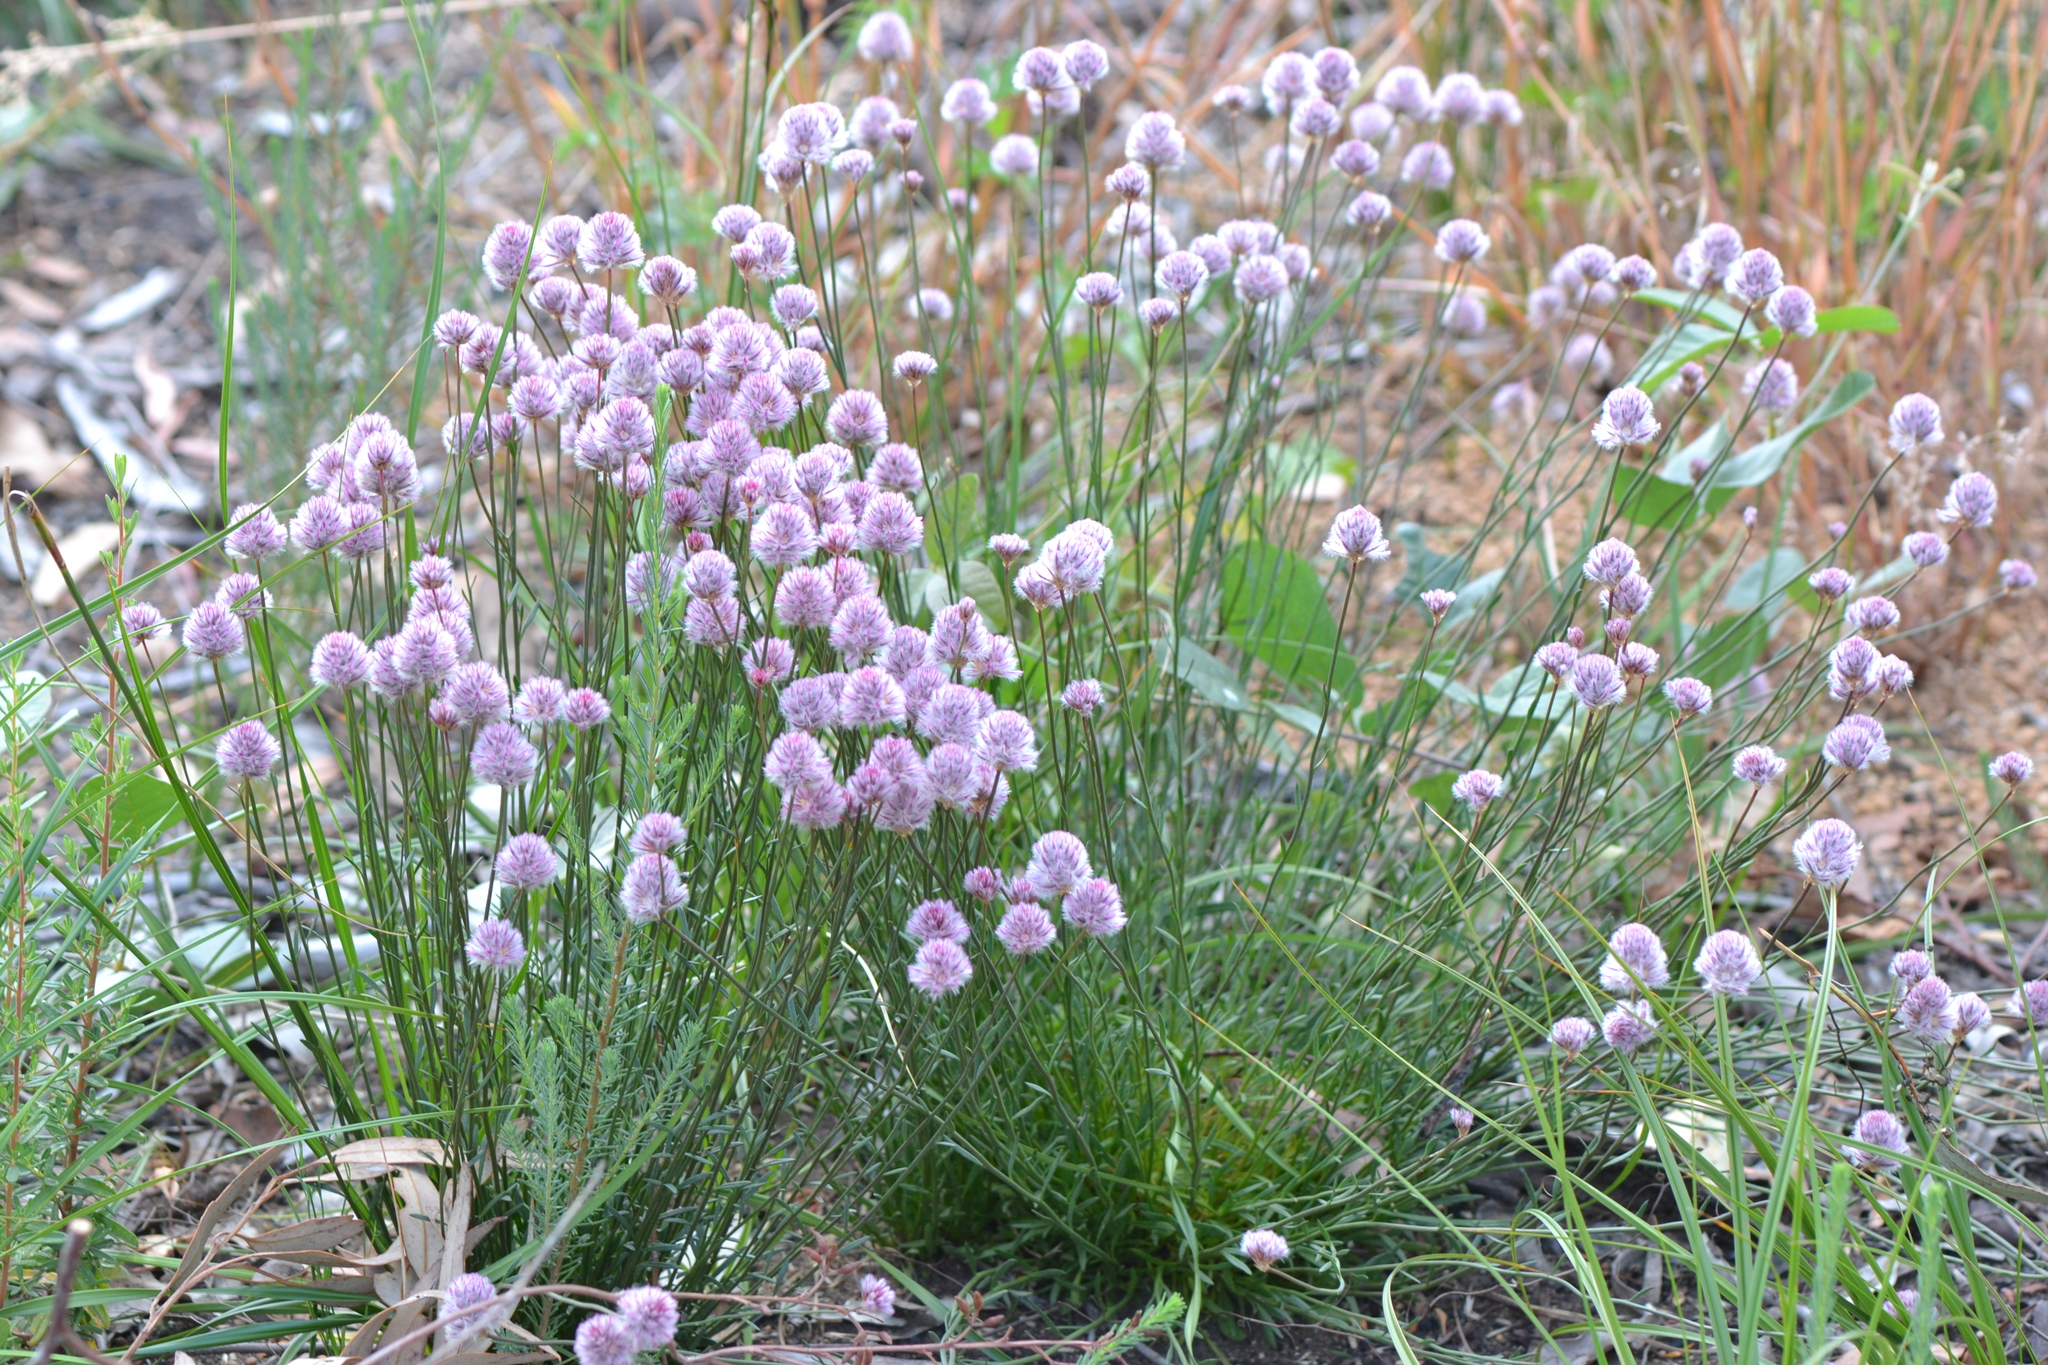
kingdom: Plantae
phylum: Tracheophyta
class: Magnoliopsida
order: Caryophyllales
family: Amaranthaceae
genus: Ptilotus
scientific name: Ptilotus drummondii
